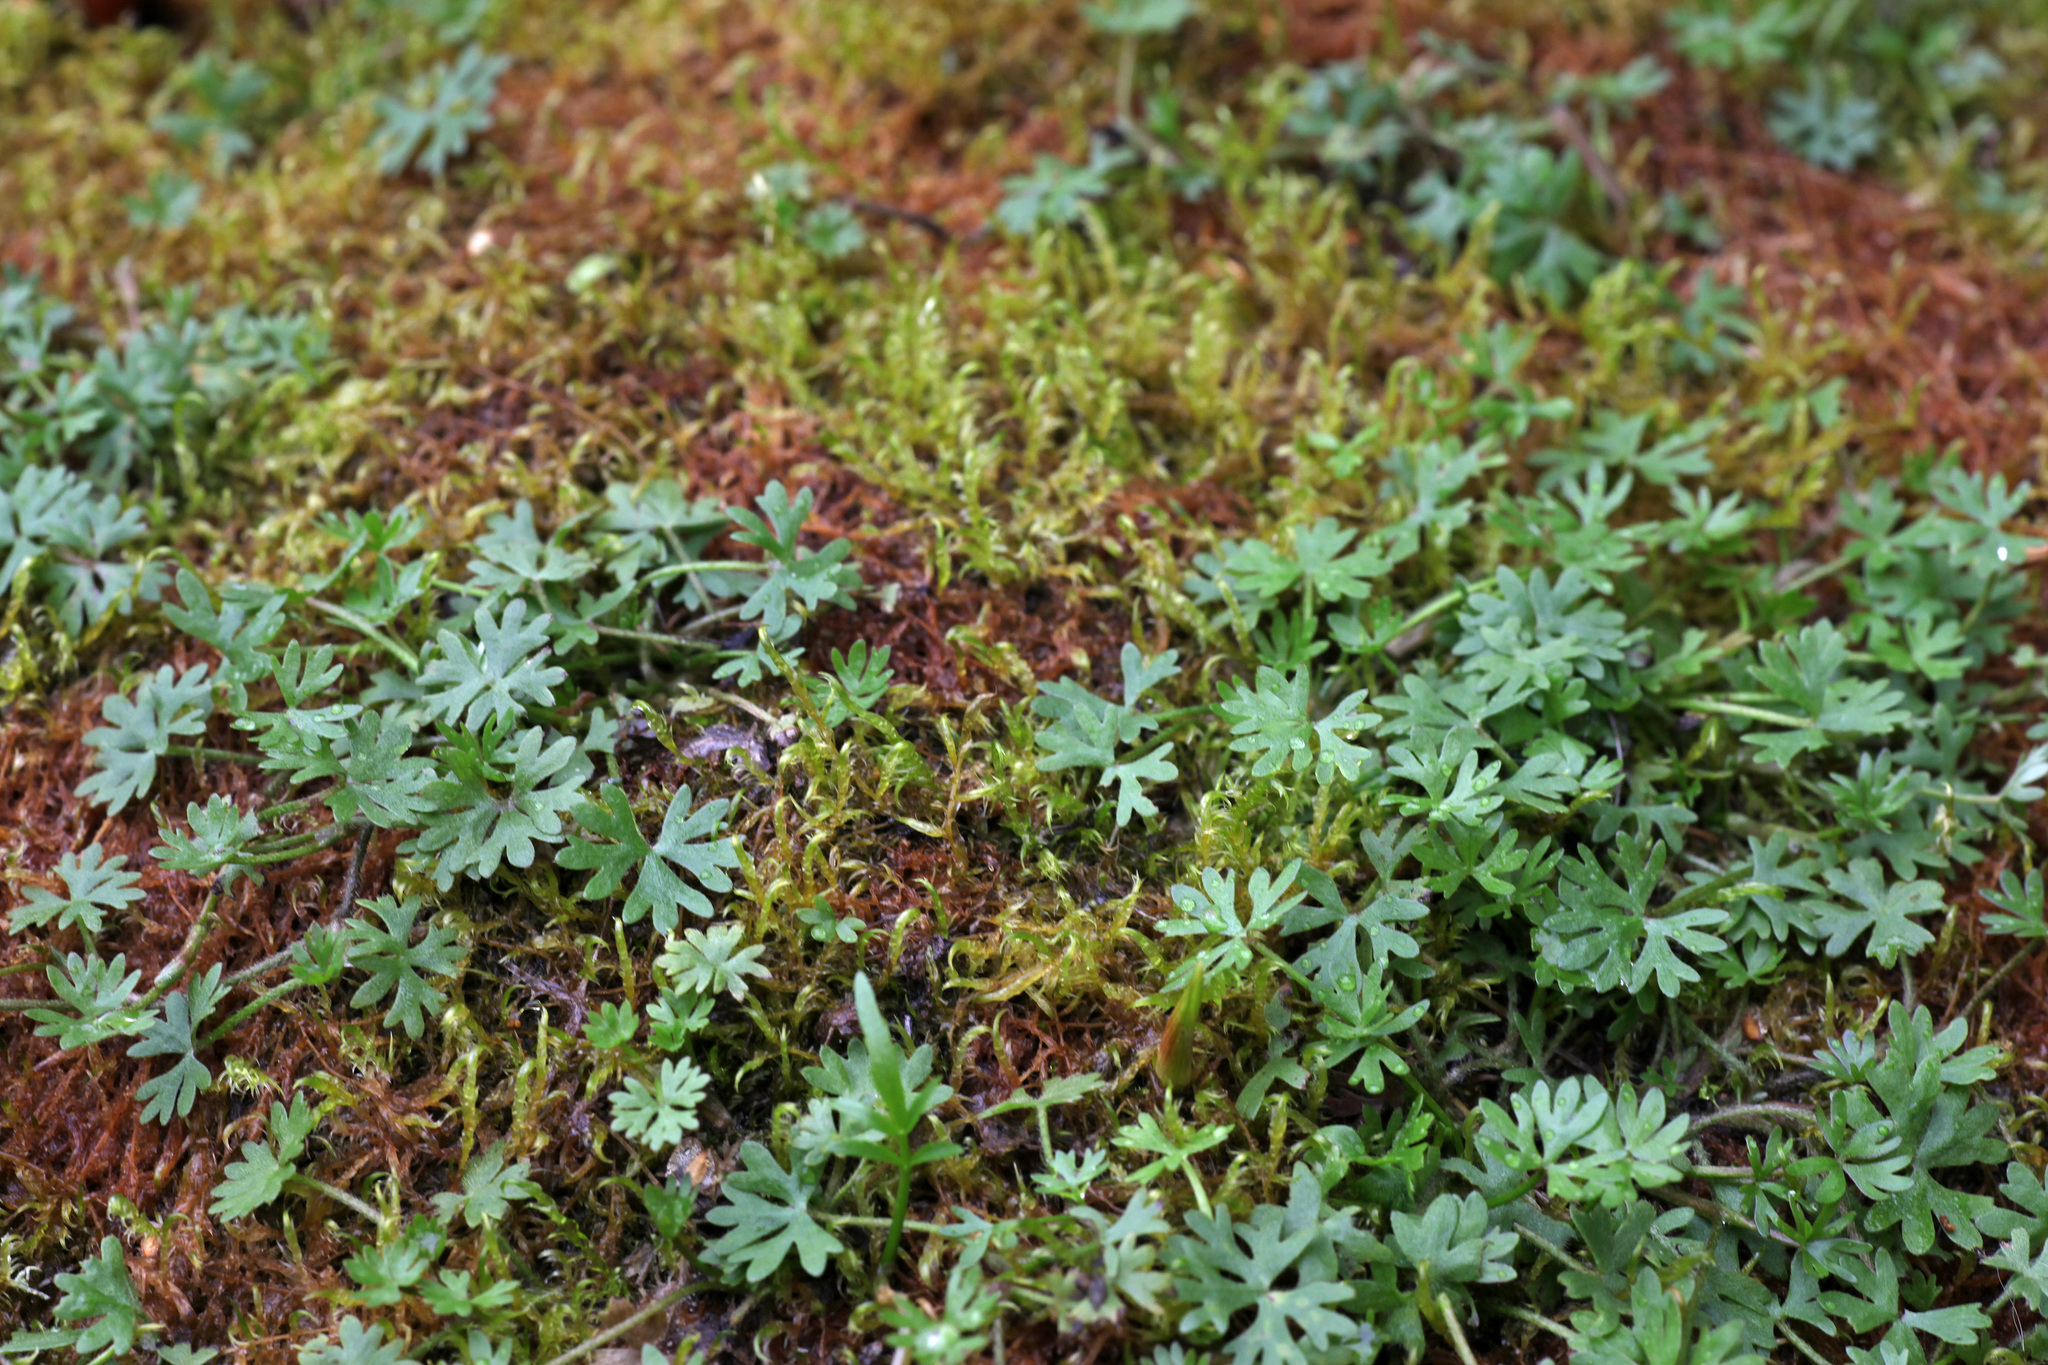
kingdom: Plantae
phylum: Tracheophyta
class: Magnoliopsida
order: Ranunculales
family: Ranunculaceae
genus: Ranunculus
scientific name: Ranunculus gmelinii
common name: Gmelin's buttercup
